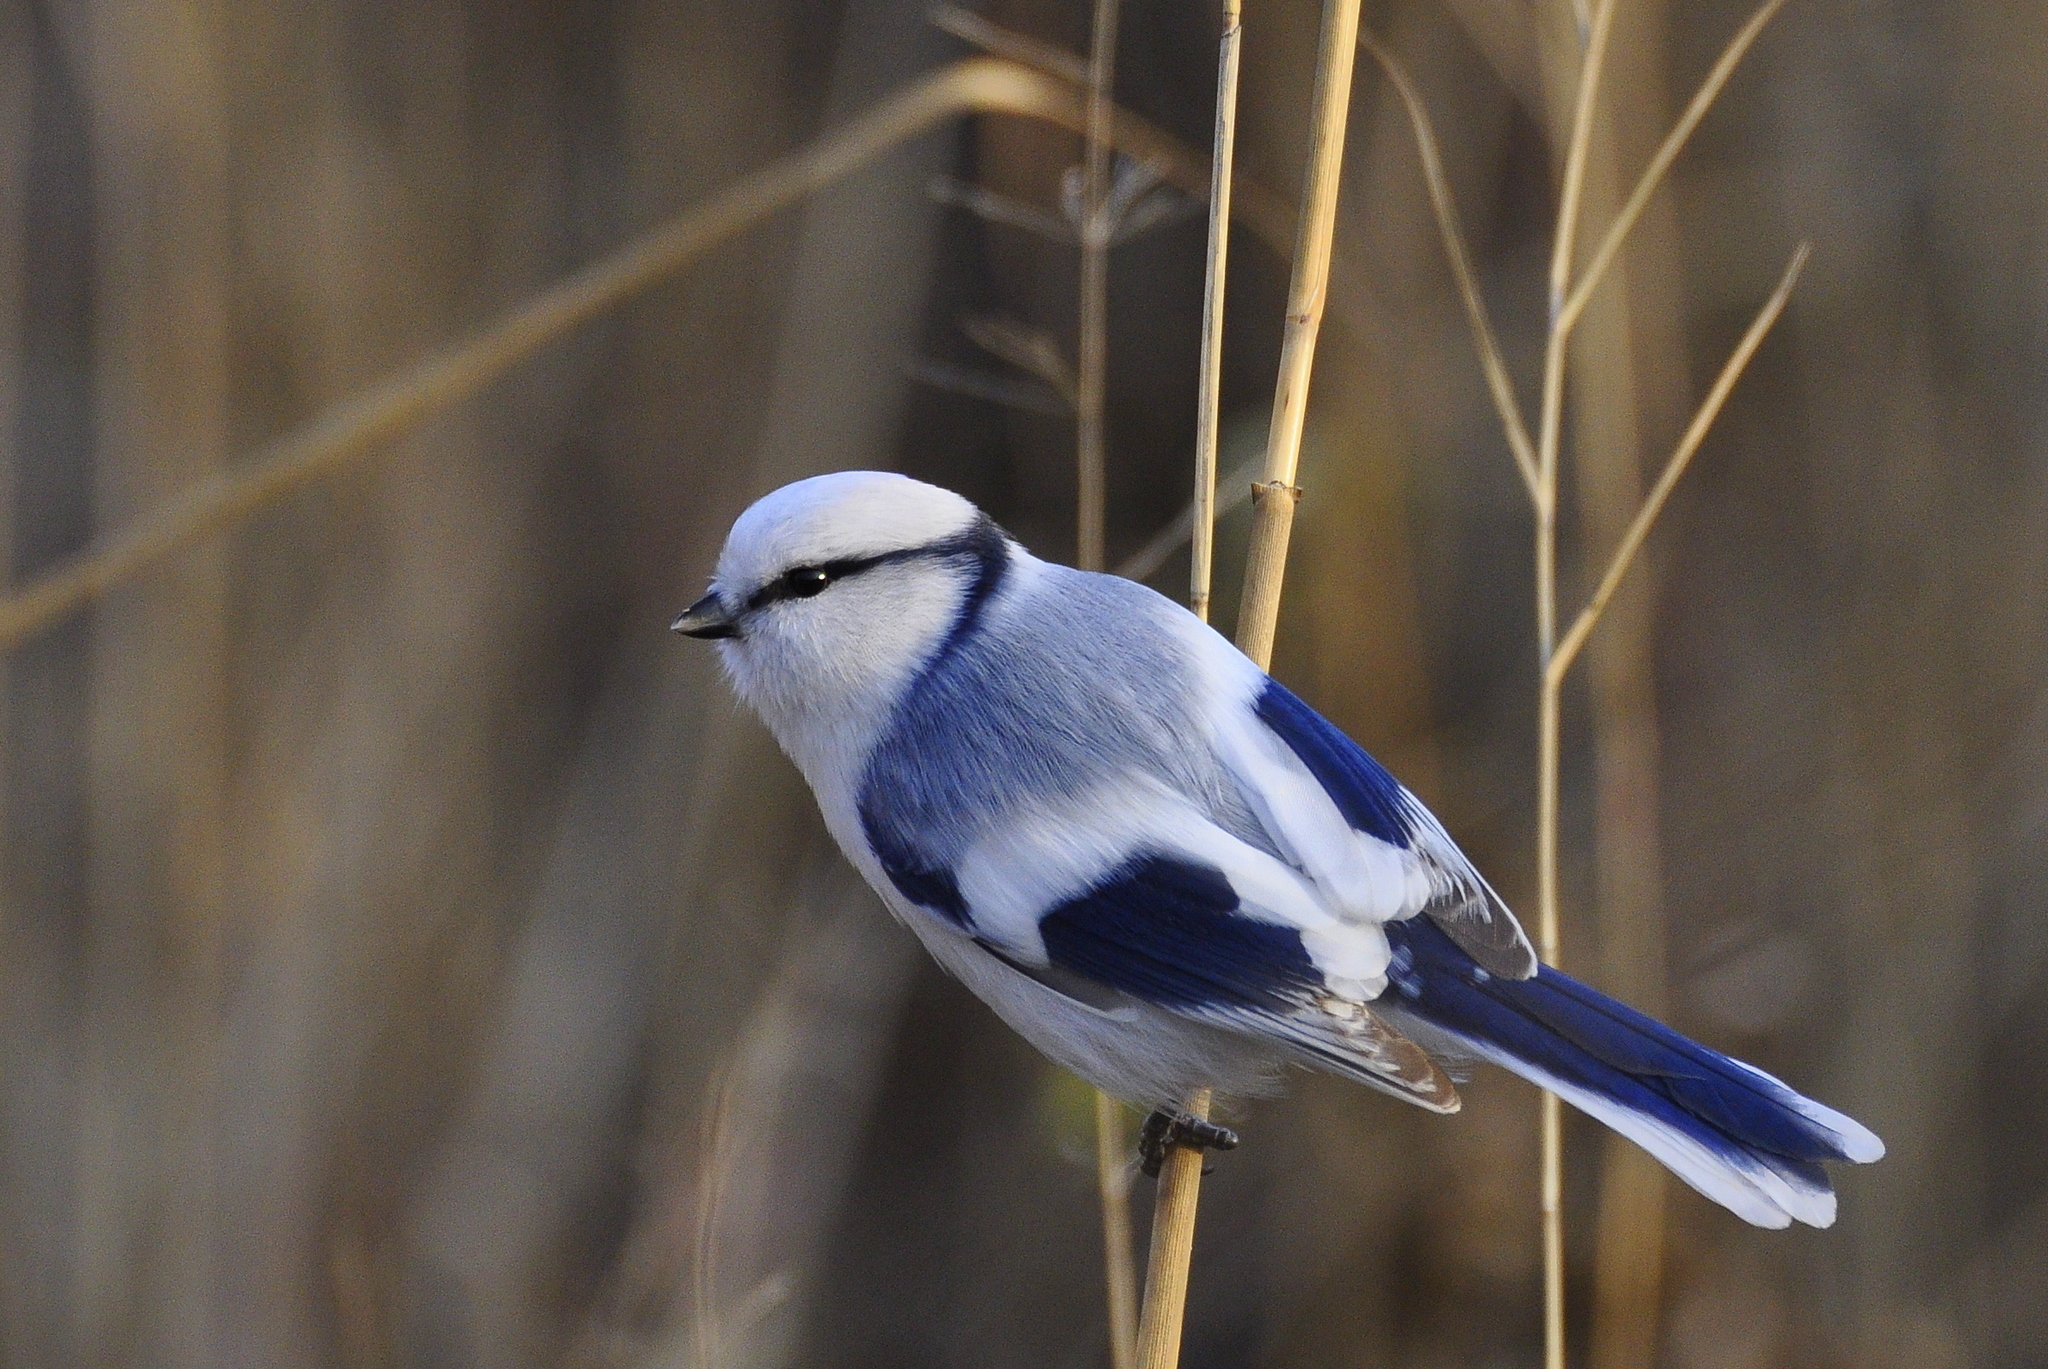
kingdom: Animalia
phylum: Chordata
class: Aves
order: Passeriformes
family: Paridae
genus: Cyanistes
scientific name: Cyanistes cyanus
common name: Azure tit
